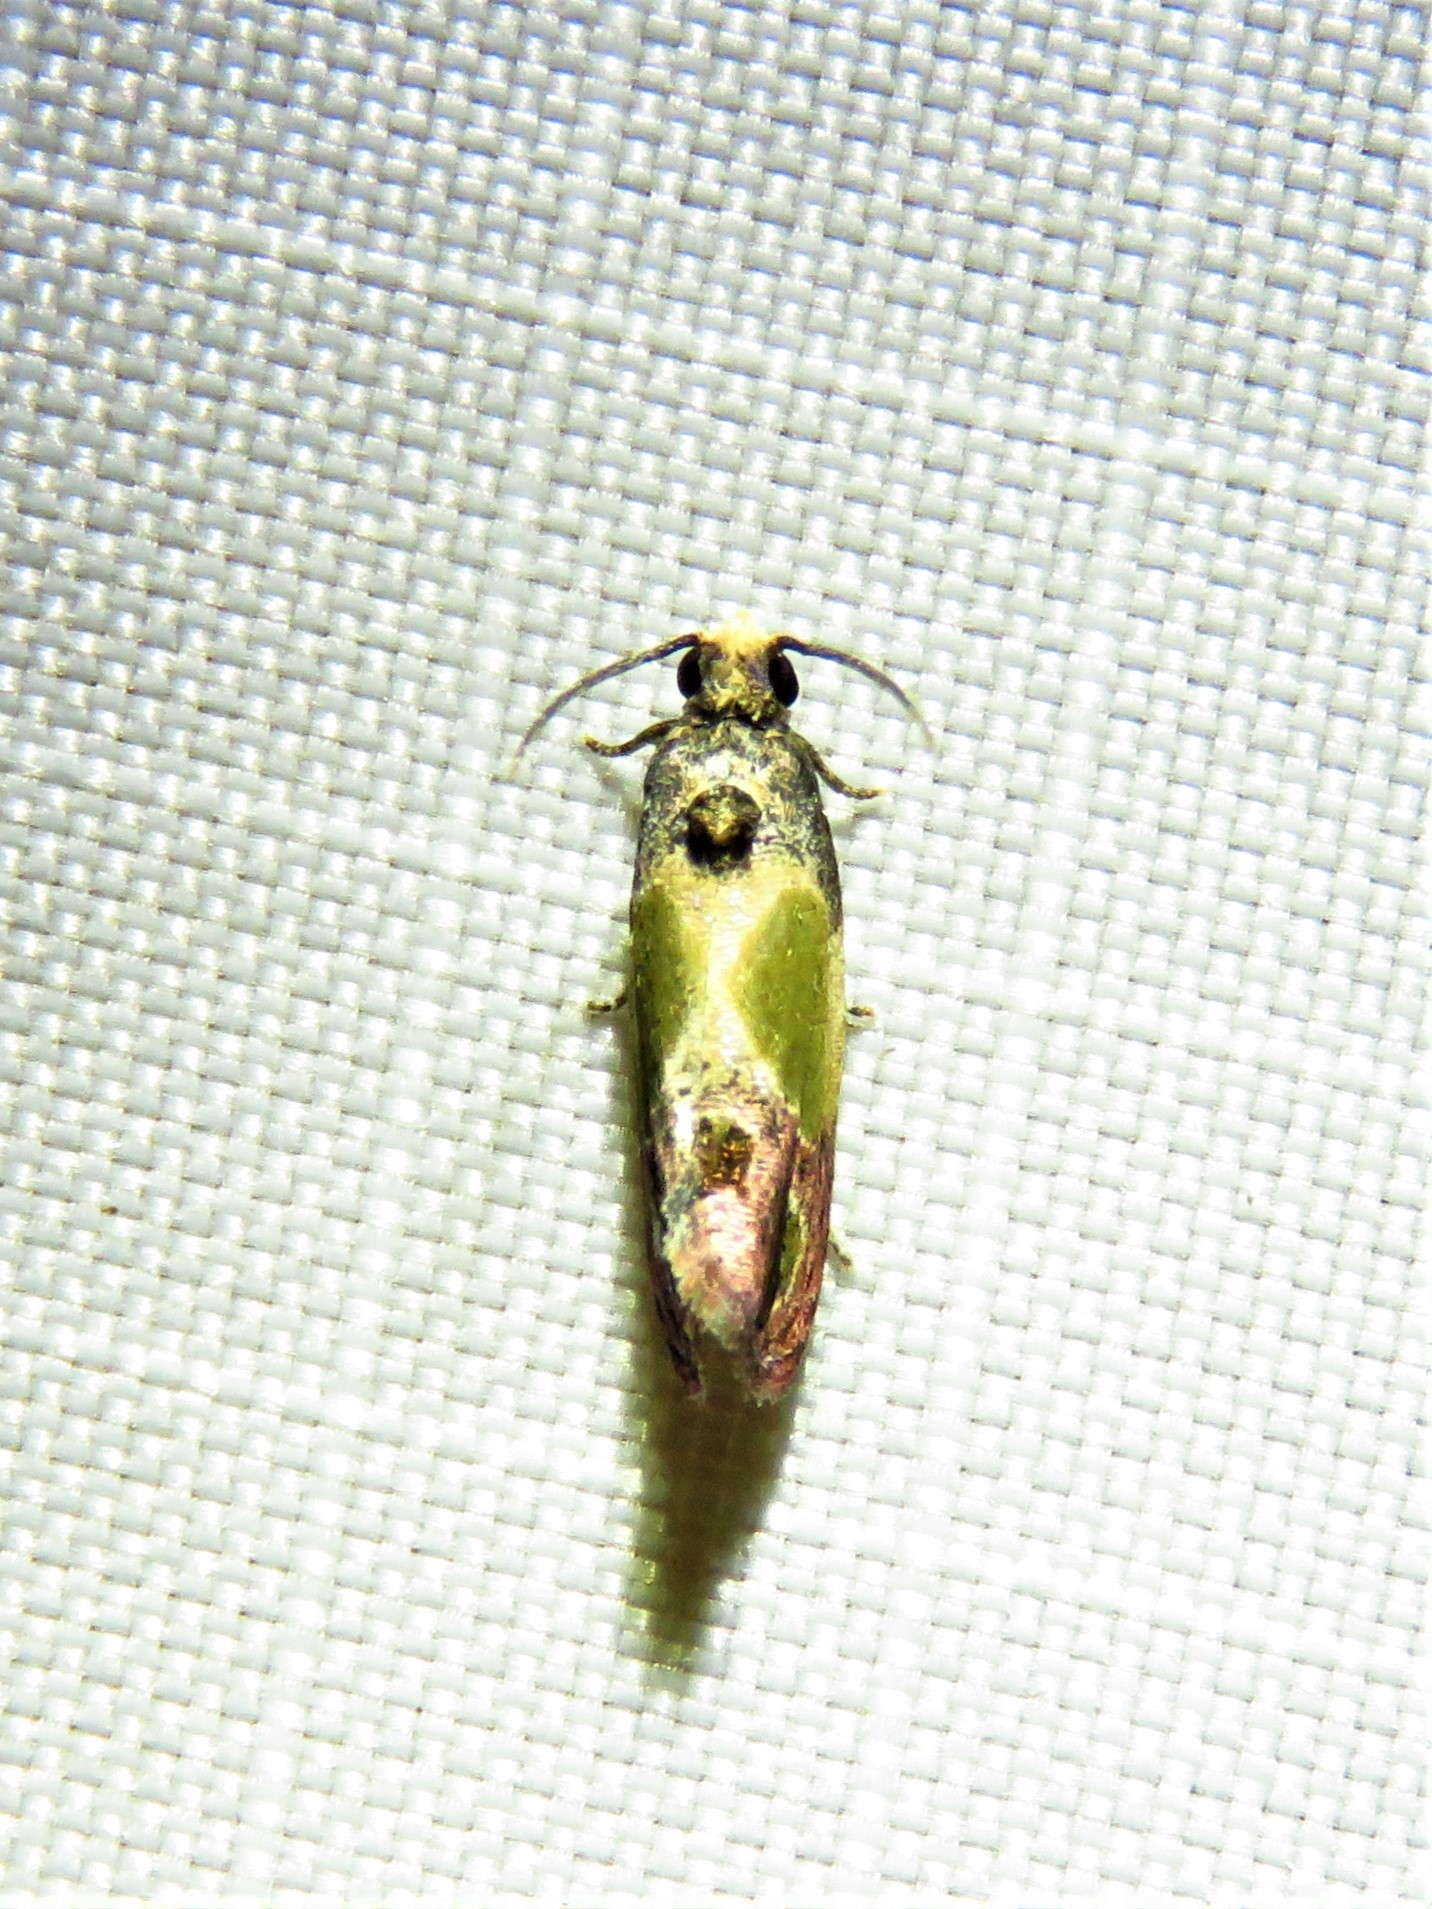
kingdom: Animalia
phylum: Arthropoda
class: Insecta
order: Lepidoptera
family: Tortricidae
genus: Eumarozia
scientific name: Eumarozia malachitana
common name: Sculptured moth
